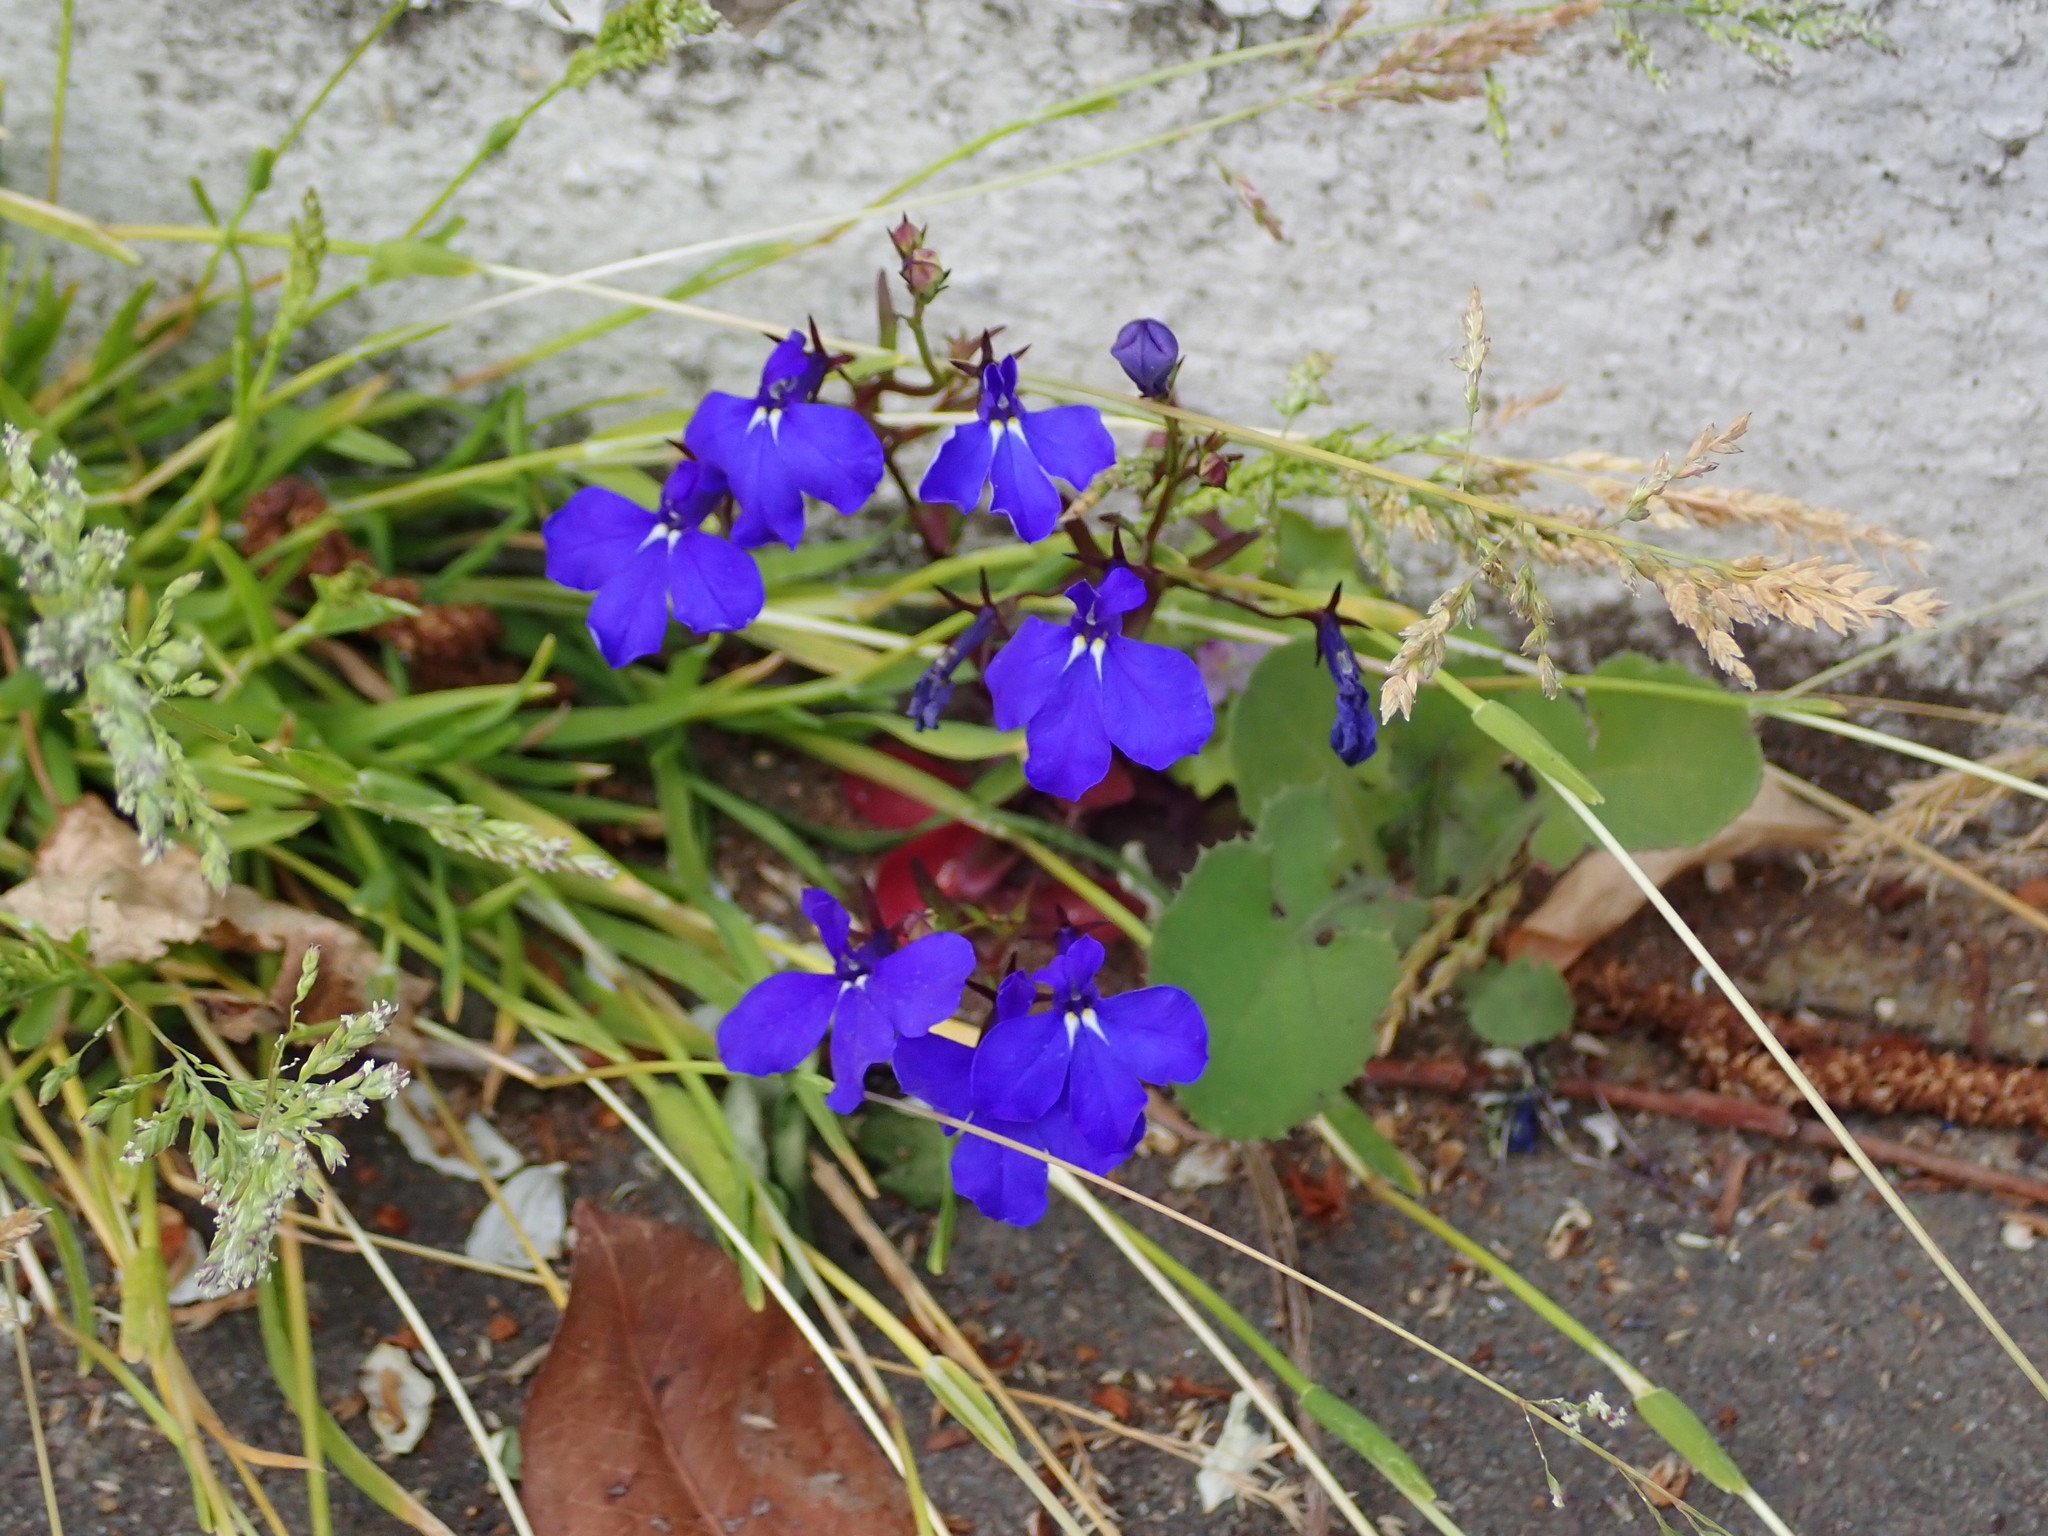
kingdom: Plantae
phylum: Tracheophyta
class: Magnoliopsida
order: Asterales
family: Campanulaceae
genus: Lobelia
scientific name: Lobelia erinus
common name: Edging lobelia
